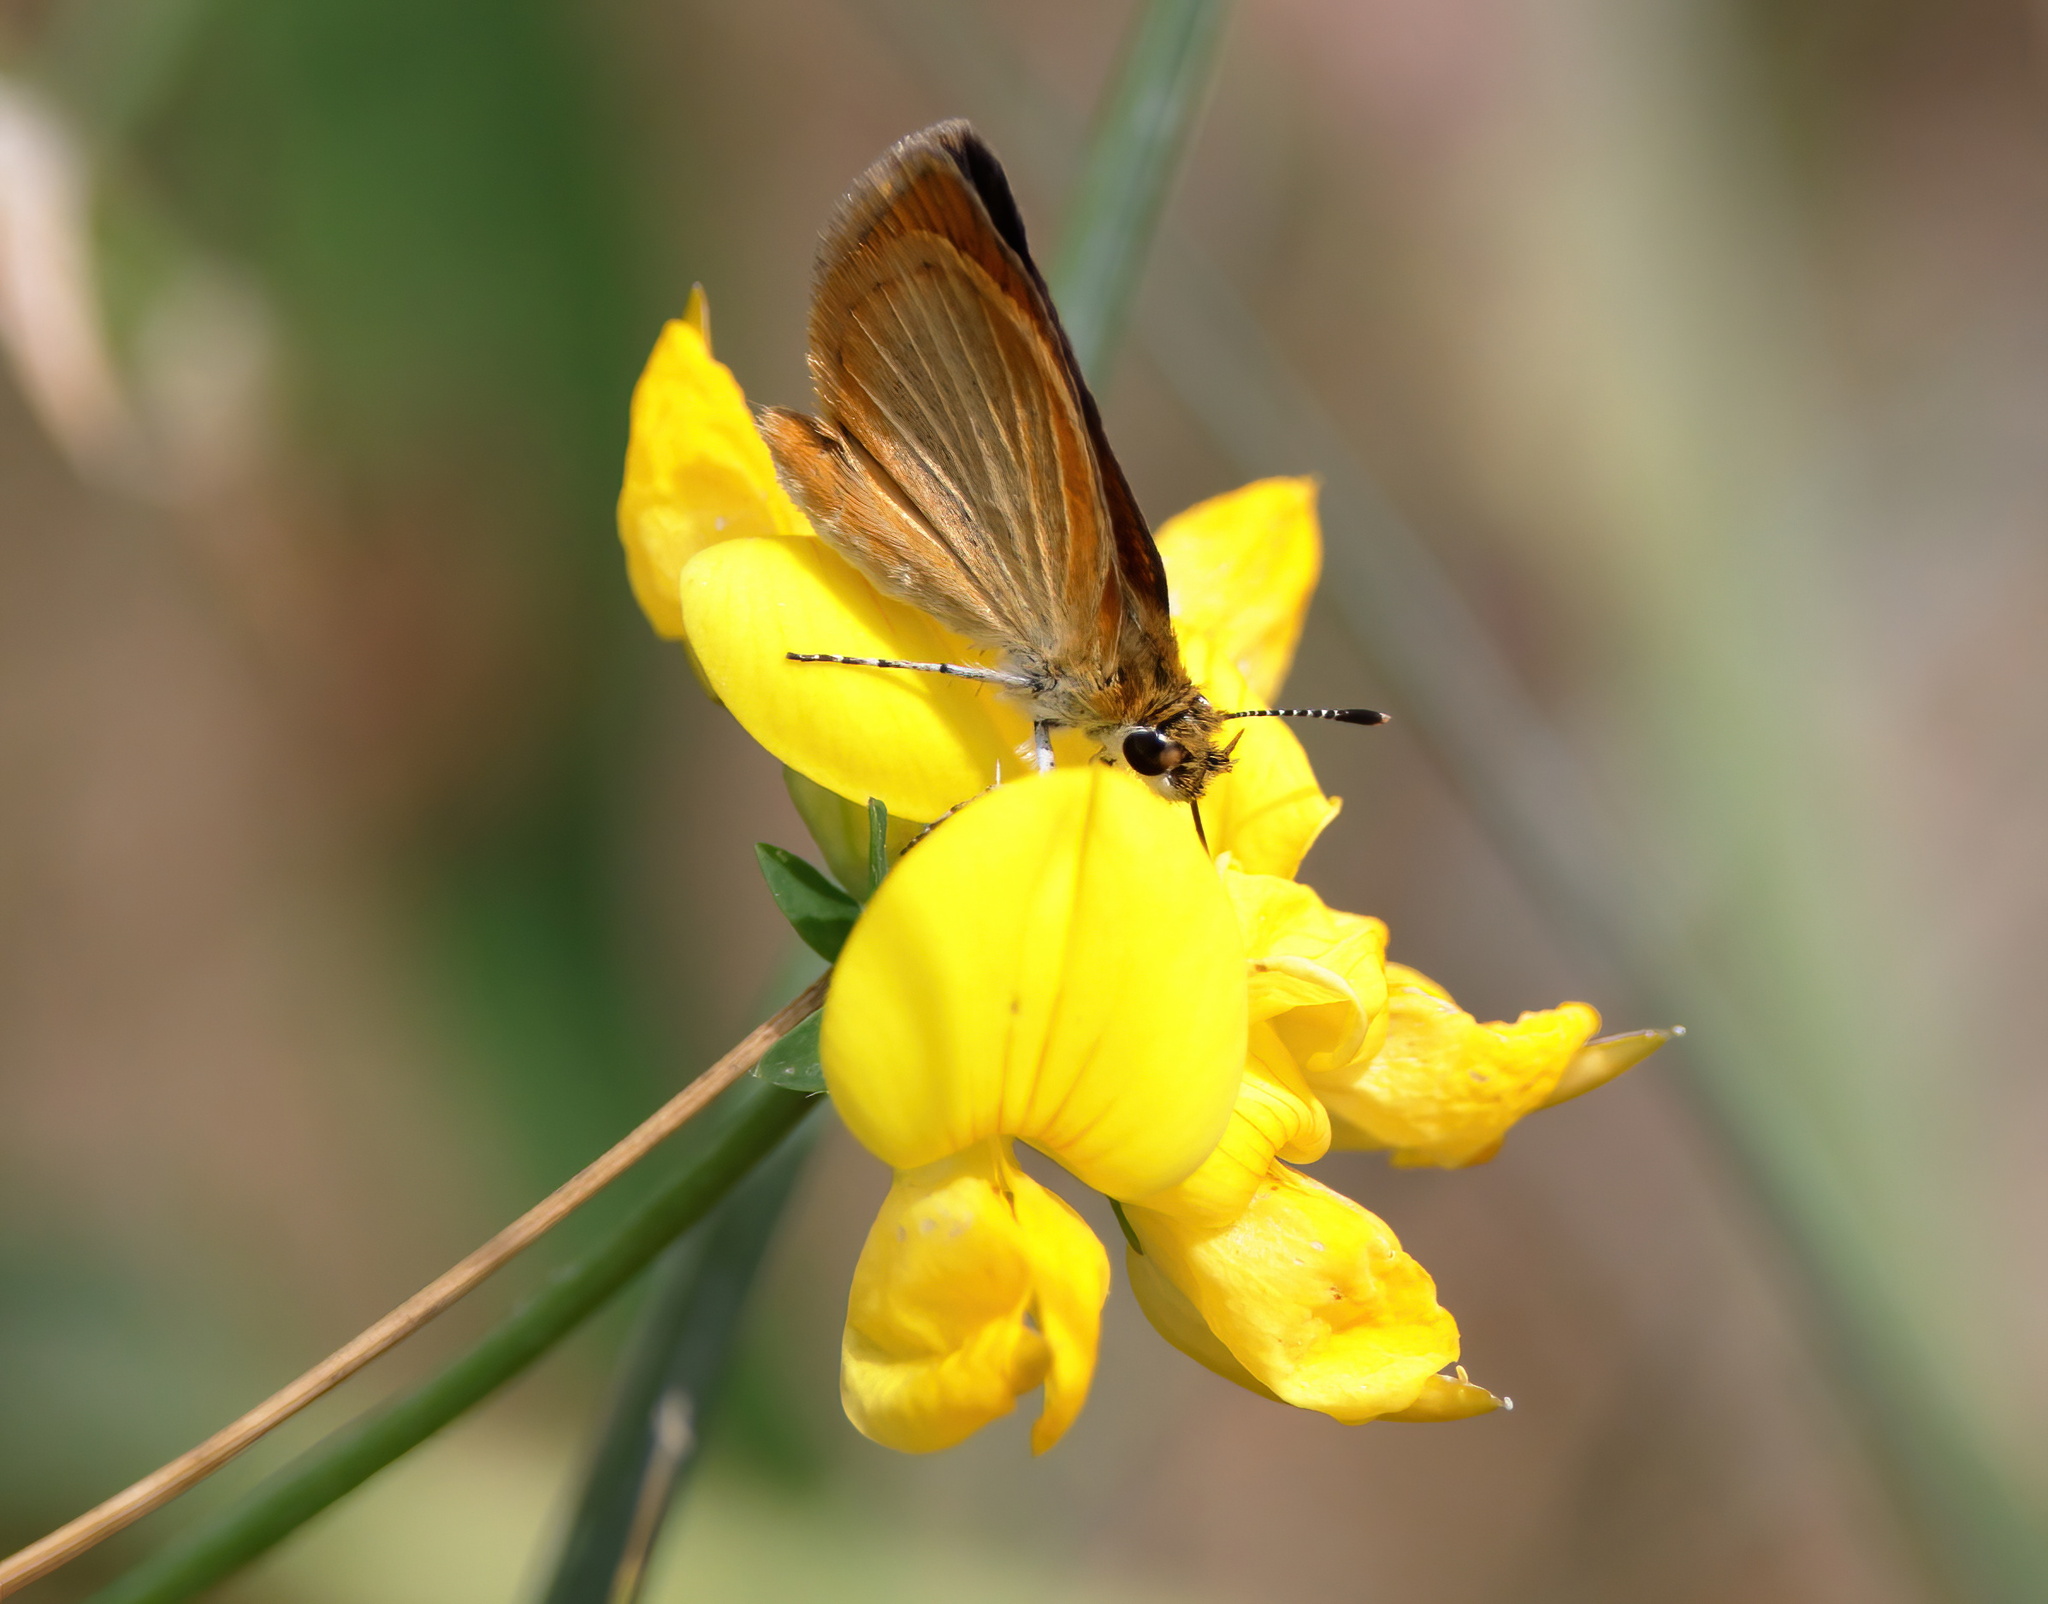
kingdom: Animalia
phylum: Arthropoda
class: Insecta
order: Lepidoptera
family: Hesperiidae
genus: Ancyloxypha
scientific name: Ancyloxypha numitor
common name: Least skipper
